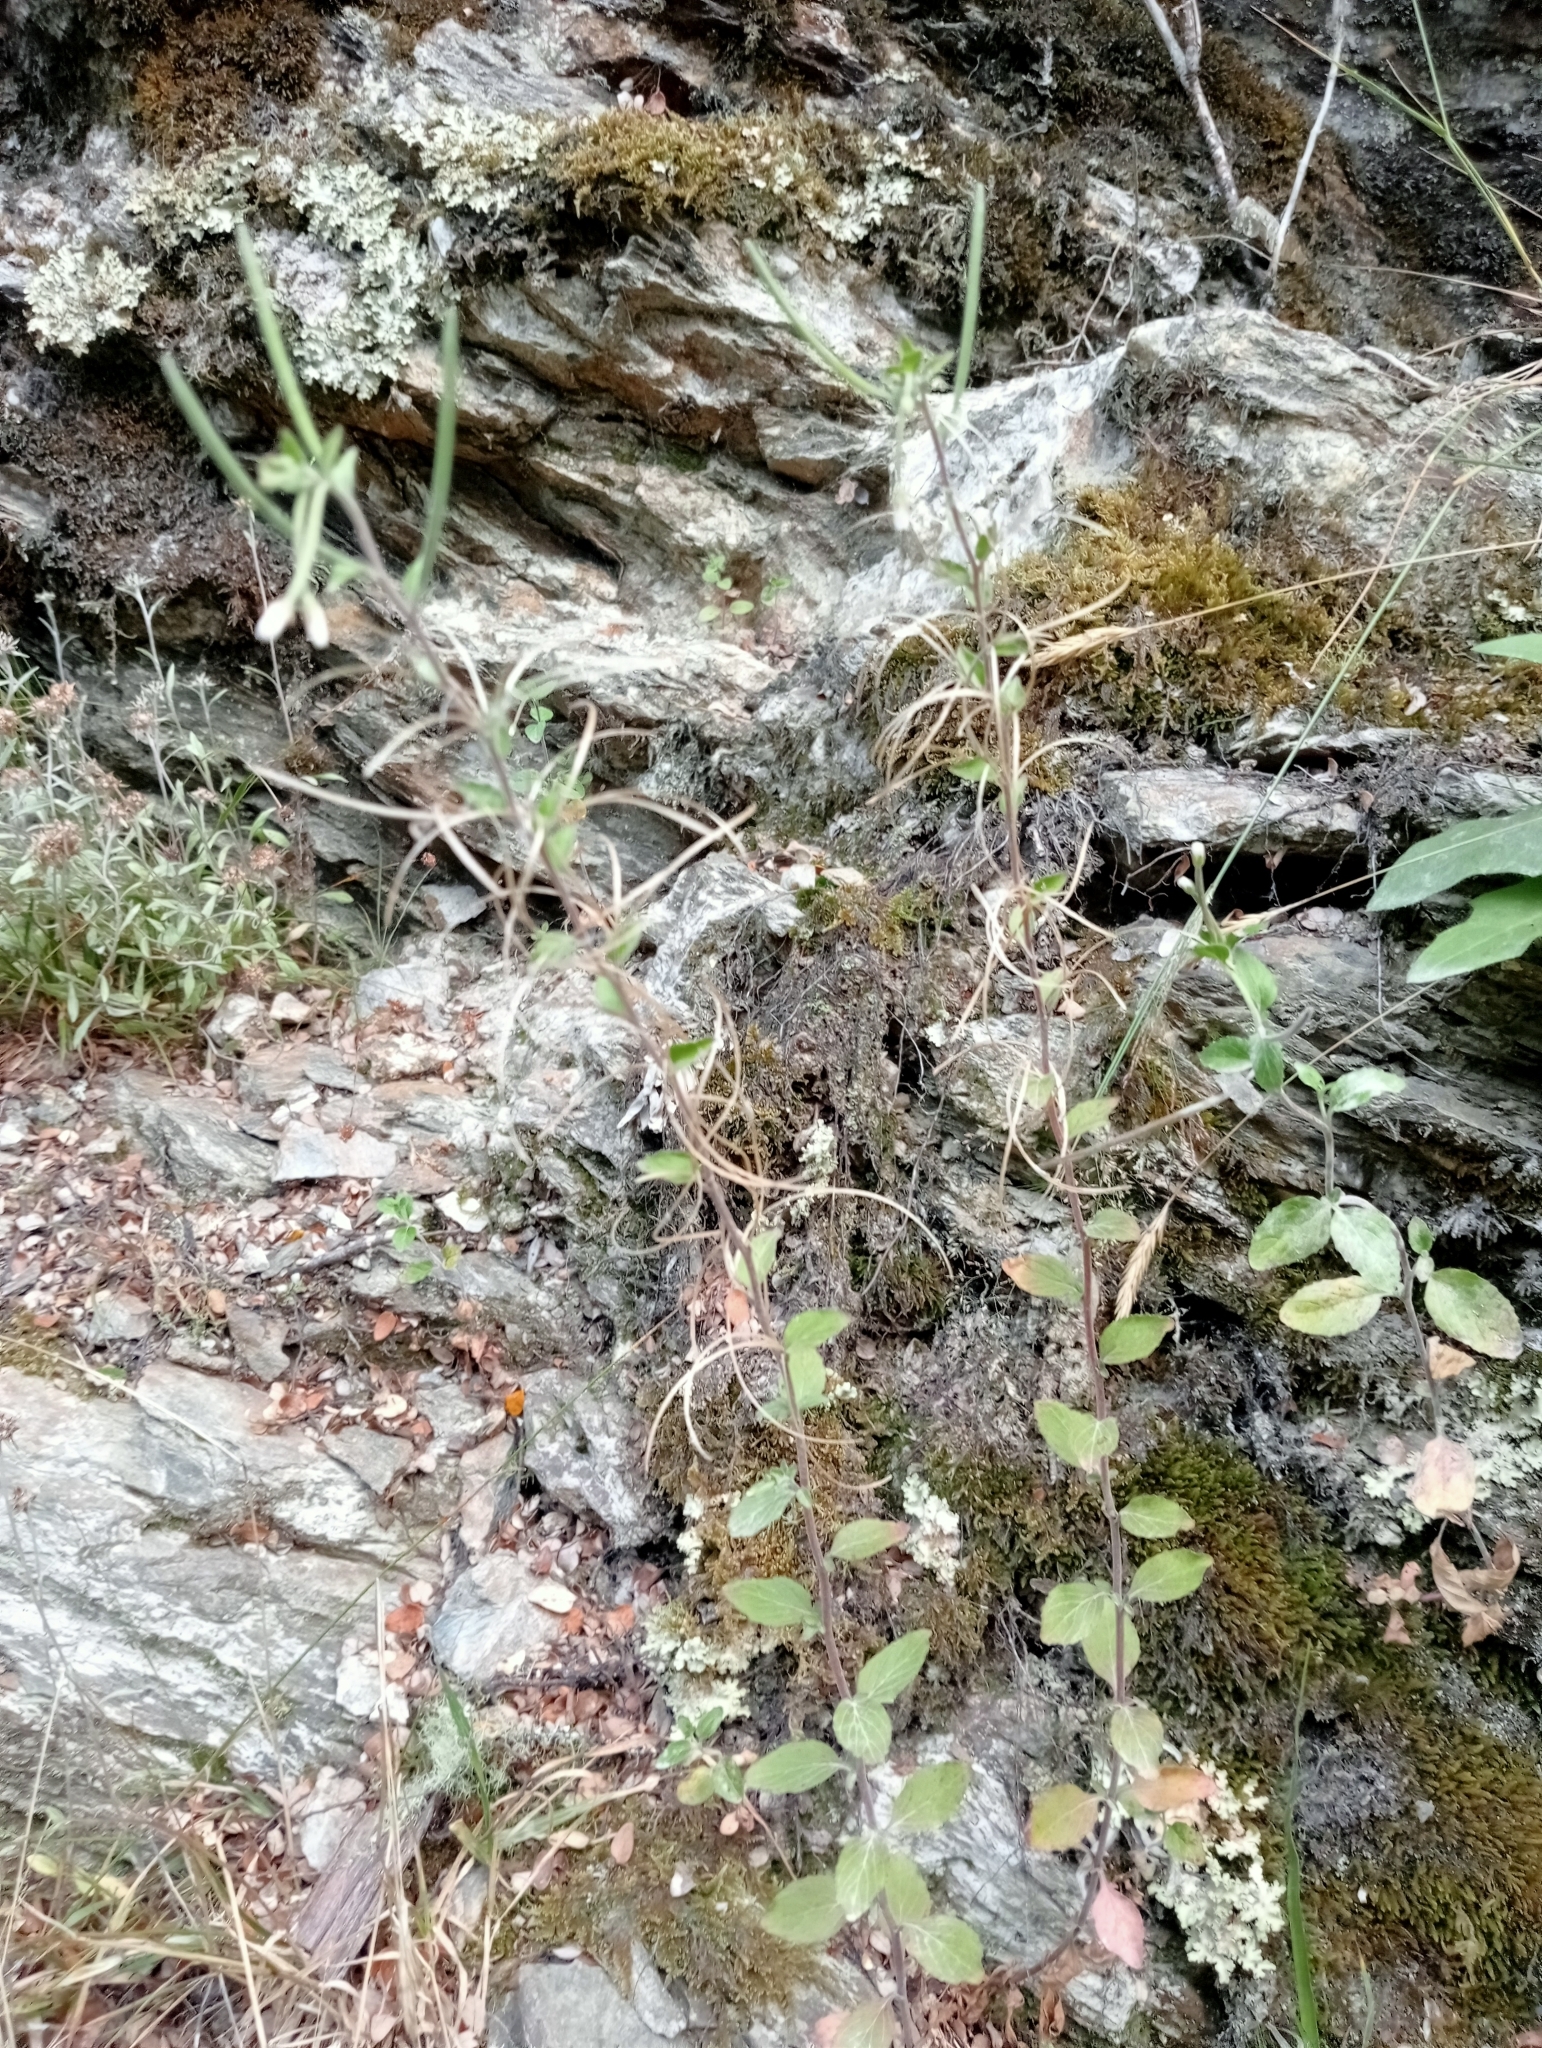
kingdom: Plantae
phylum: Tracheophyta
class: Magnoliopsida
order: Myrtales
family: Onagraceae
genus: Epilobium
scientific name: Epilobium pubens
